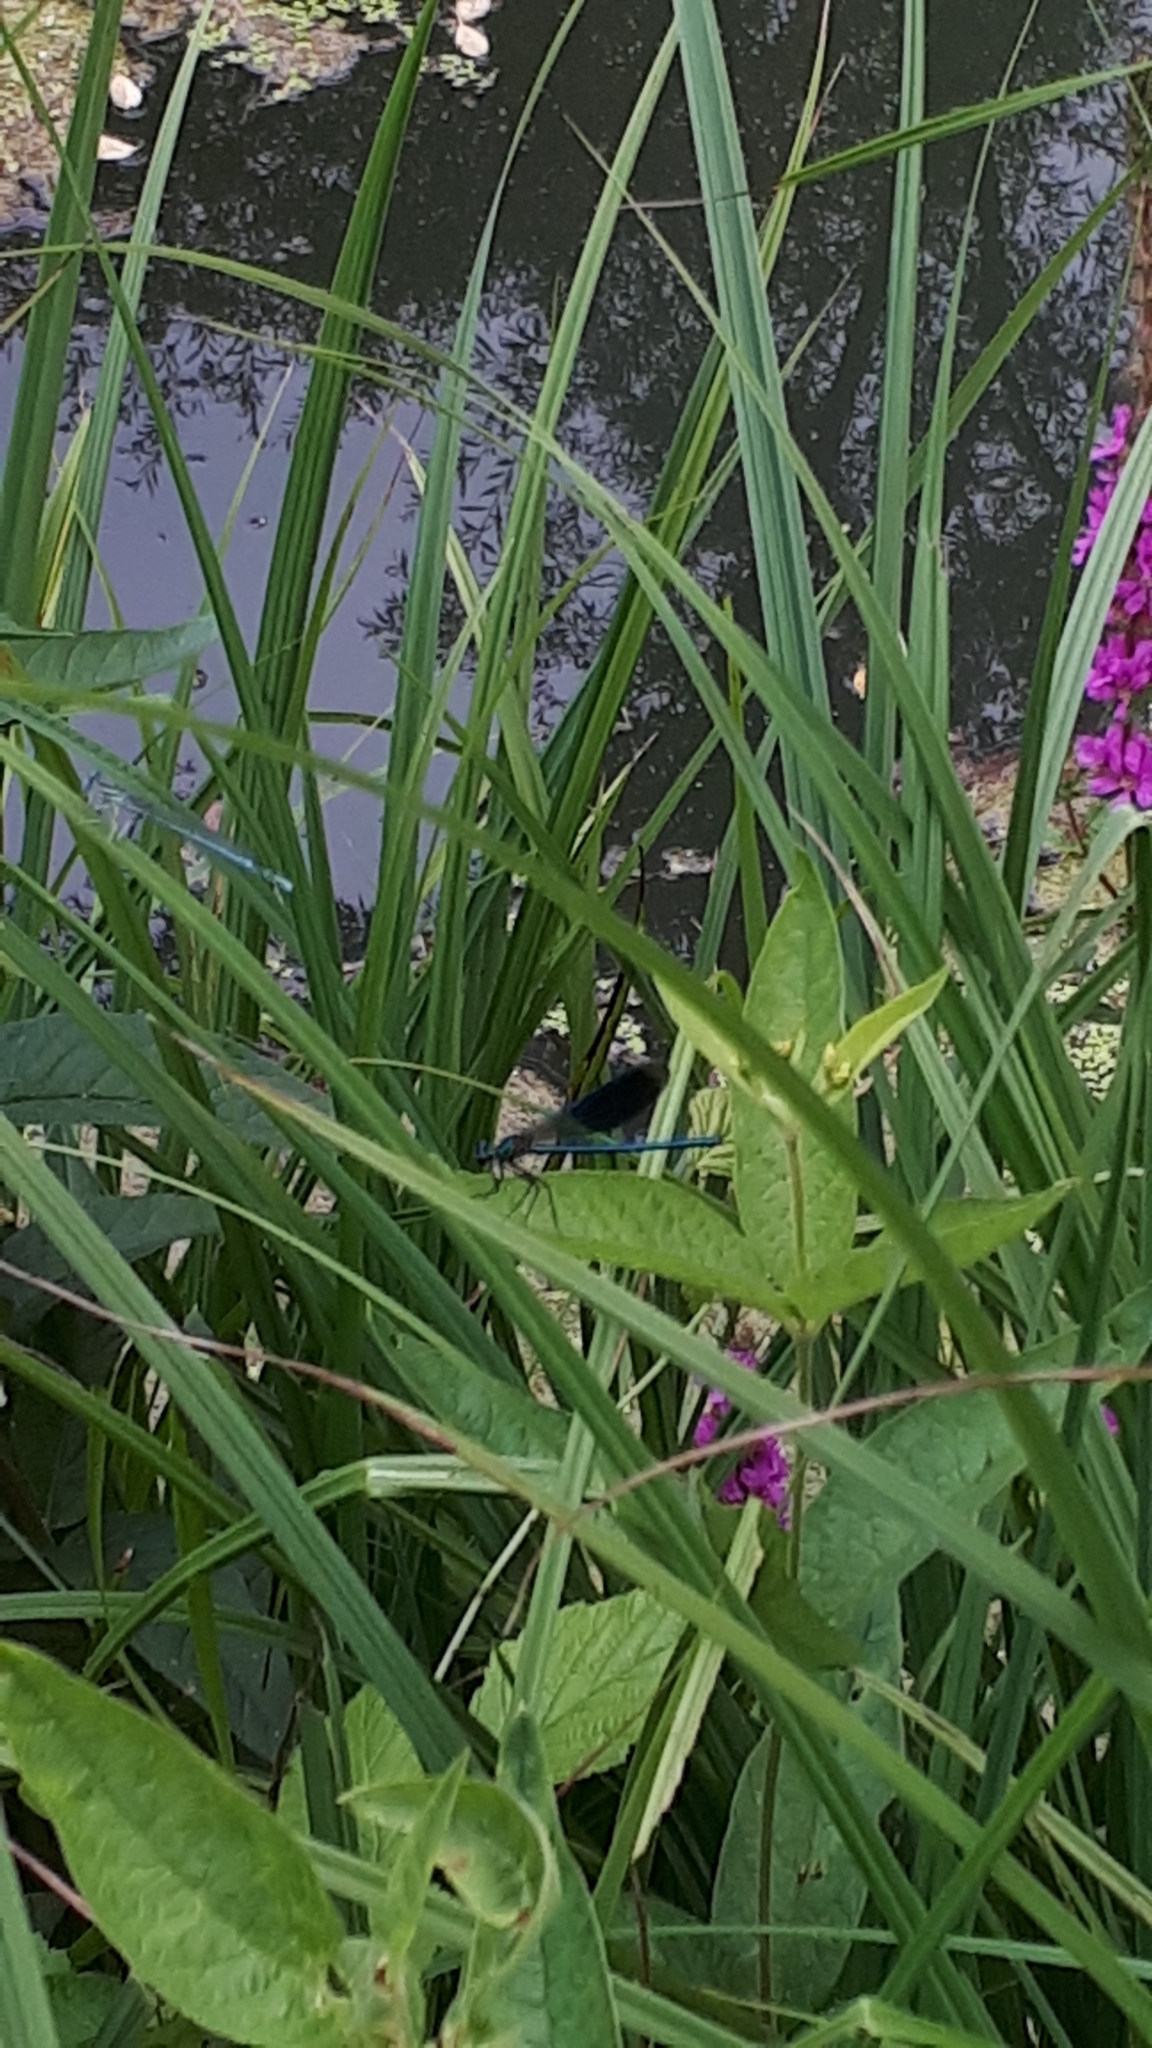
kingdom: Animalia
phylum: Arthropoda
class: Insecta
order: Odonata
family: Calopterygidae
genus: Calopteryx
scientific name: Calopteryx splendens
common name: Banded demoiselle
